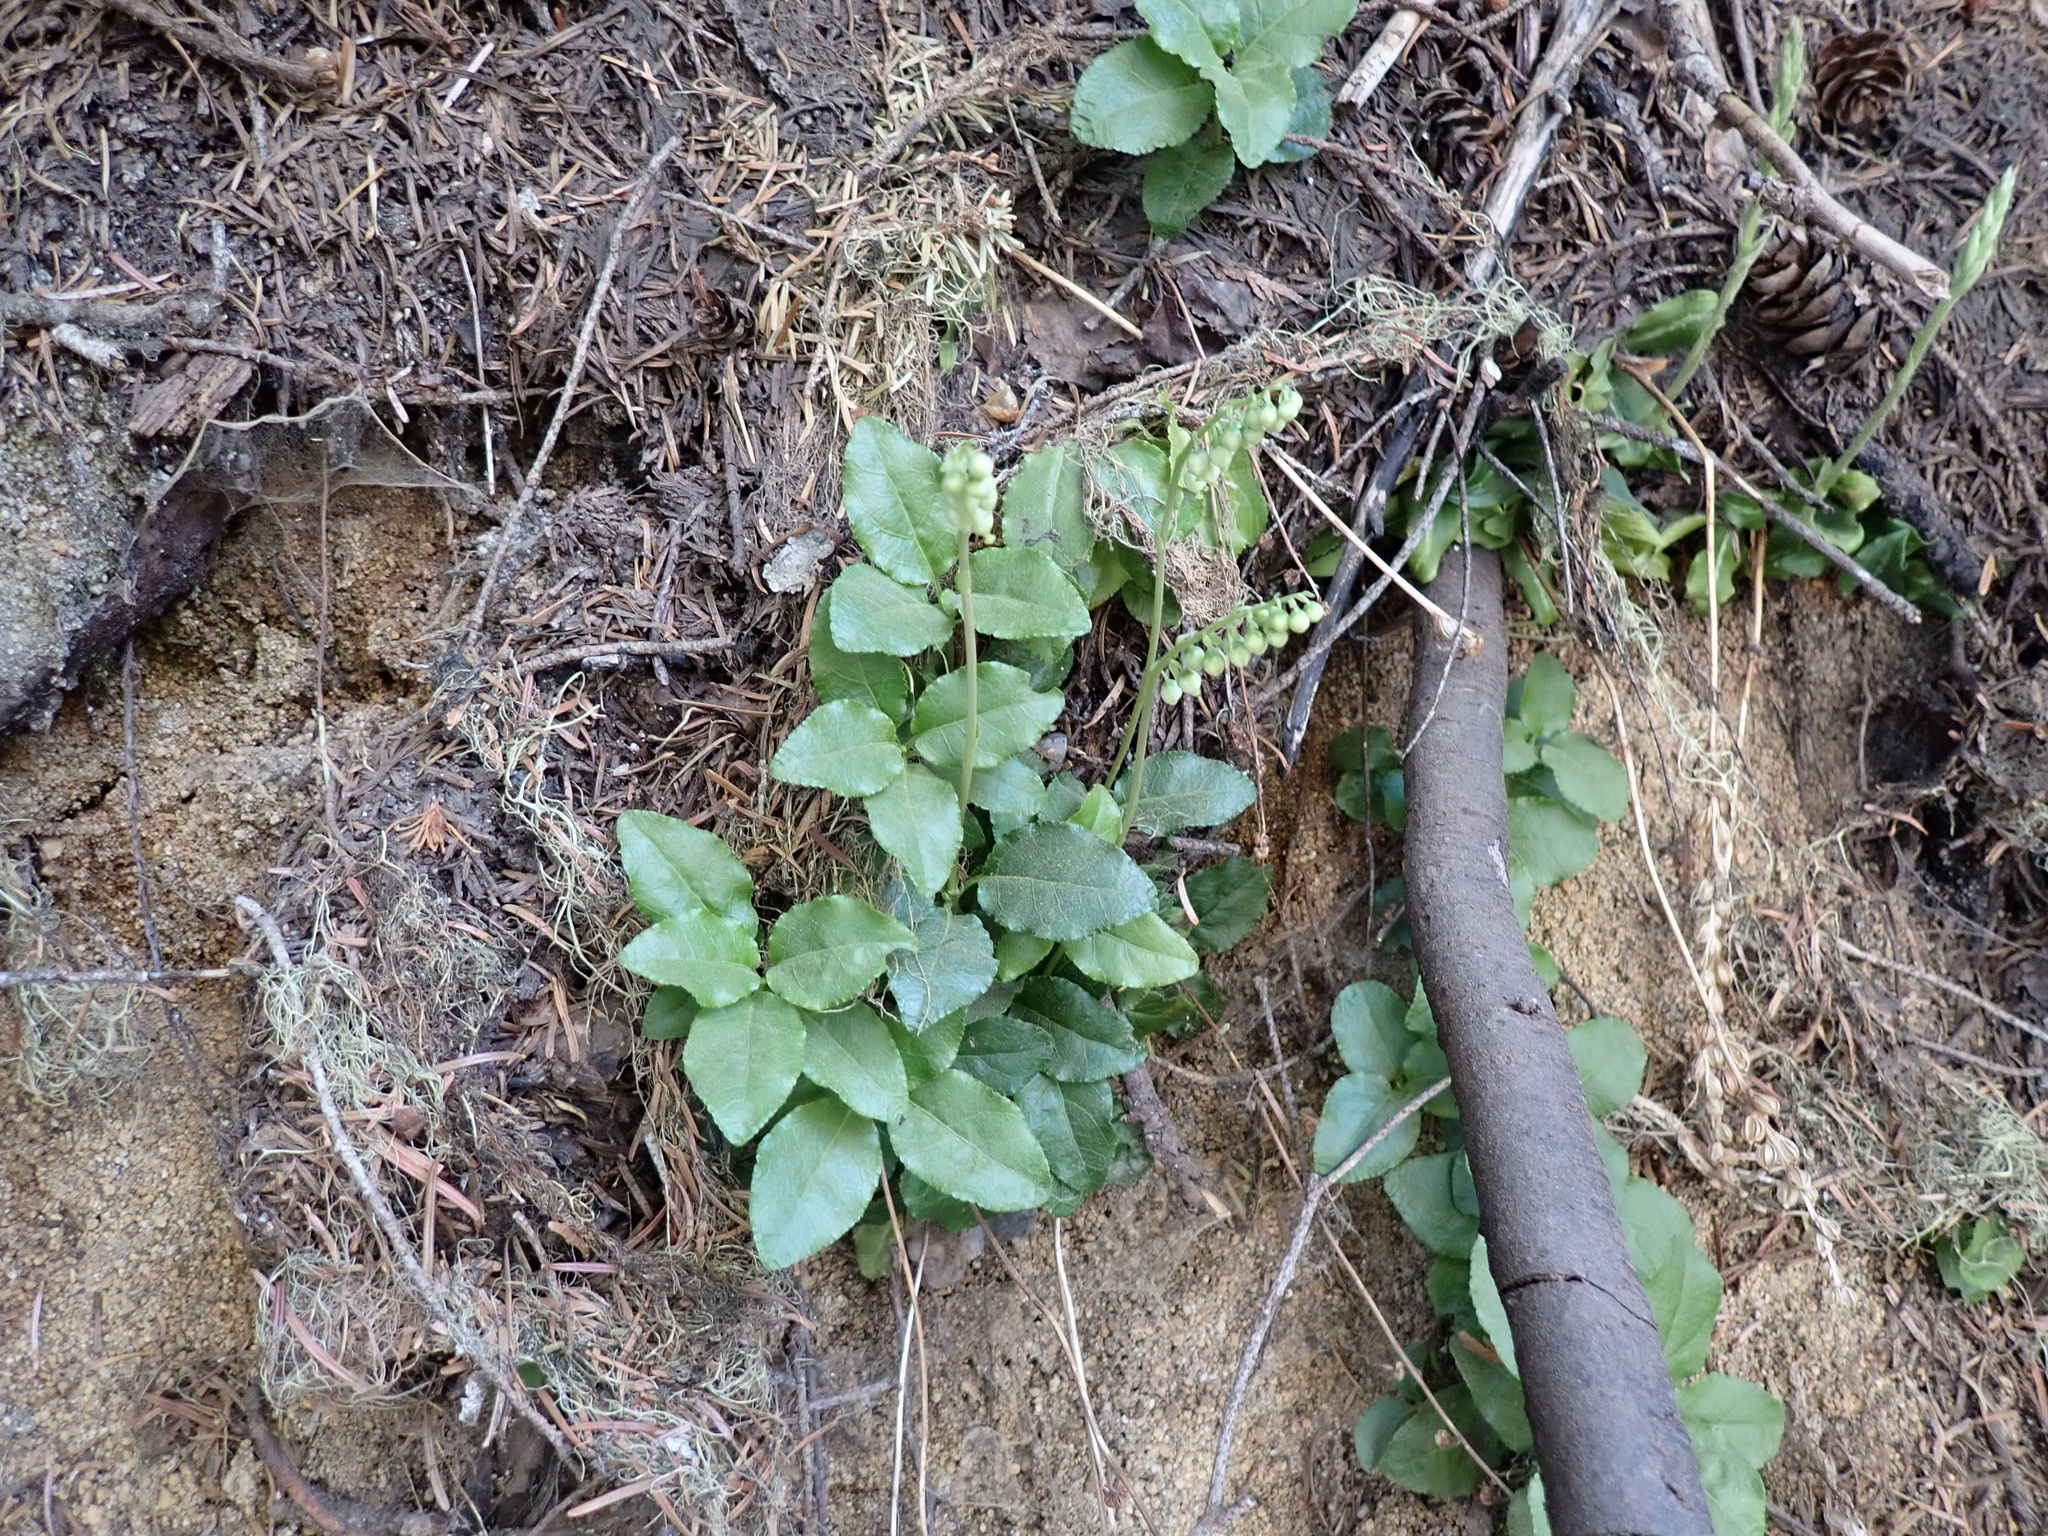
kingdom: Plantae
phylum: Tracheophyta
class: Magnoliopsida
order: Ericales
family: Ericaceae
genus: Orthilia
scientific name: Orthilia secunda
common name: One-sided orthilia
